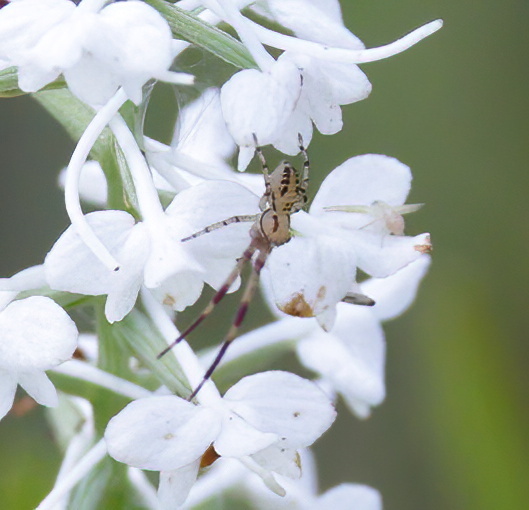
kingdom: Animalia
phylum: Arthropoda
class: Arachnida
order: Araneae
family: Thomisidae
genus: Mecaphesa
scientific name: Mecaphesa celer
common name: Crab spiders
